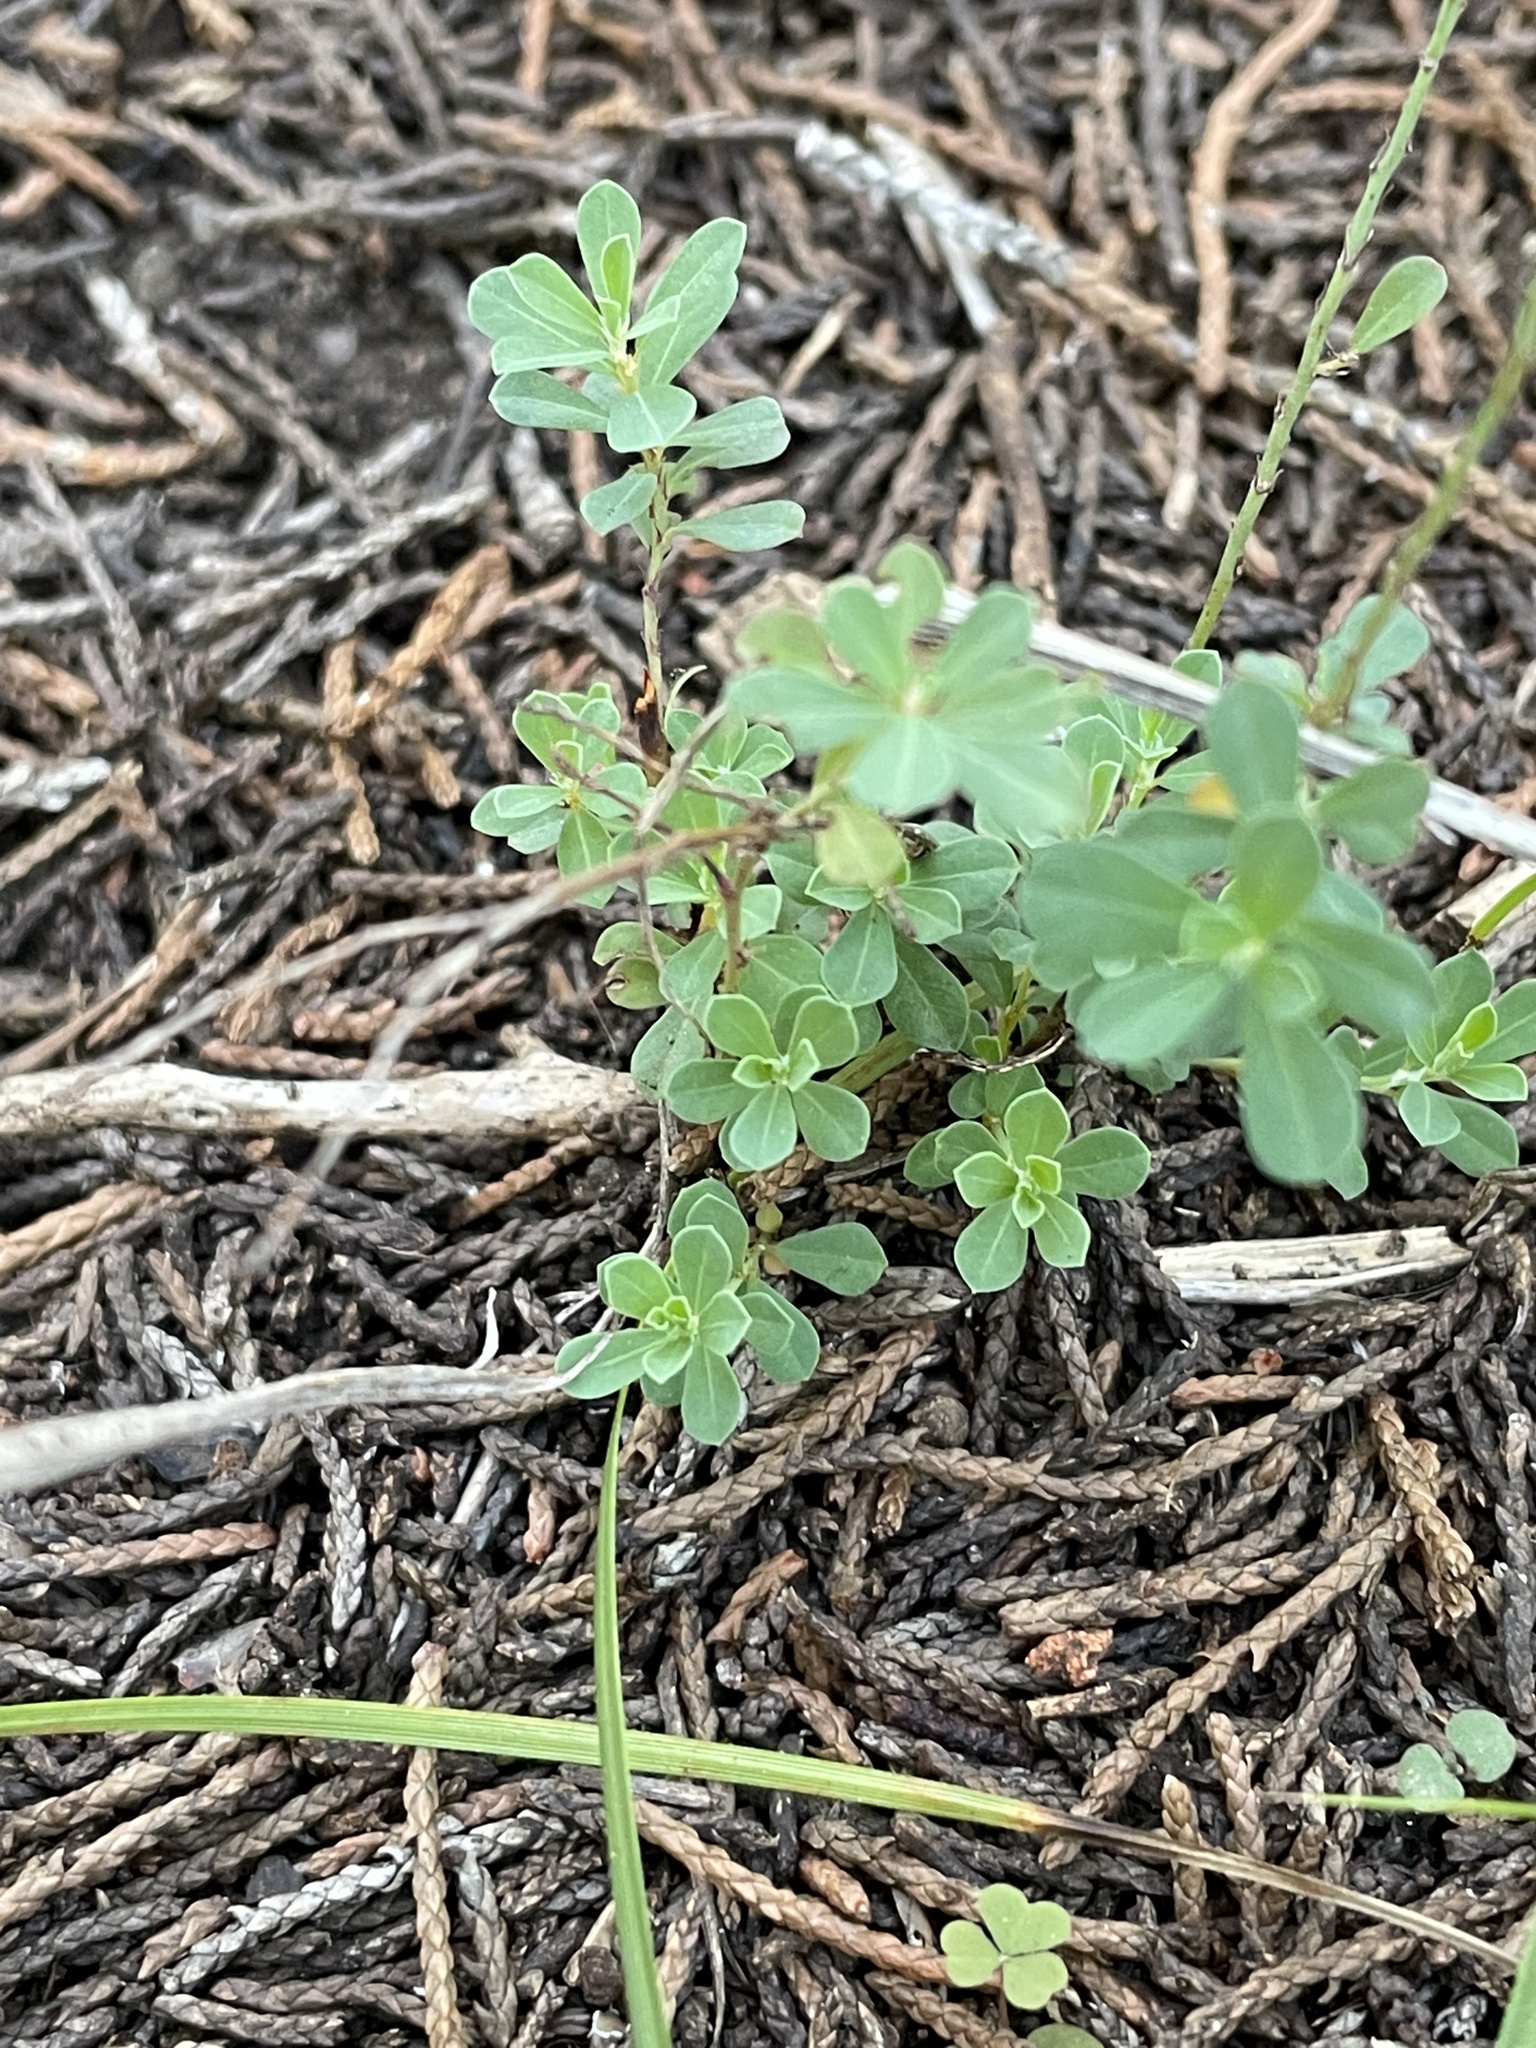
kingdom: Plantae
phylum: Tracheophyta
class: Magnoliopsida
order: Malpighiales
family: Phyllanthaceae
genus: Phyllanthus
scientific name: Phyllanthus polygonoides
